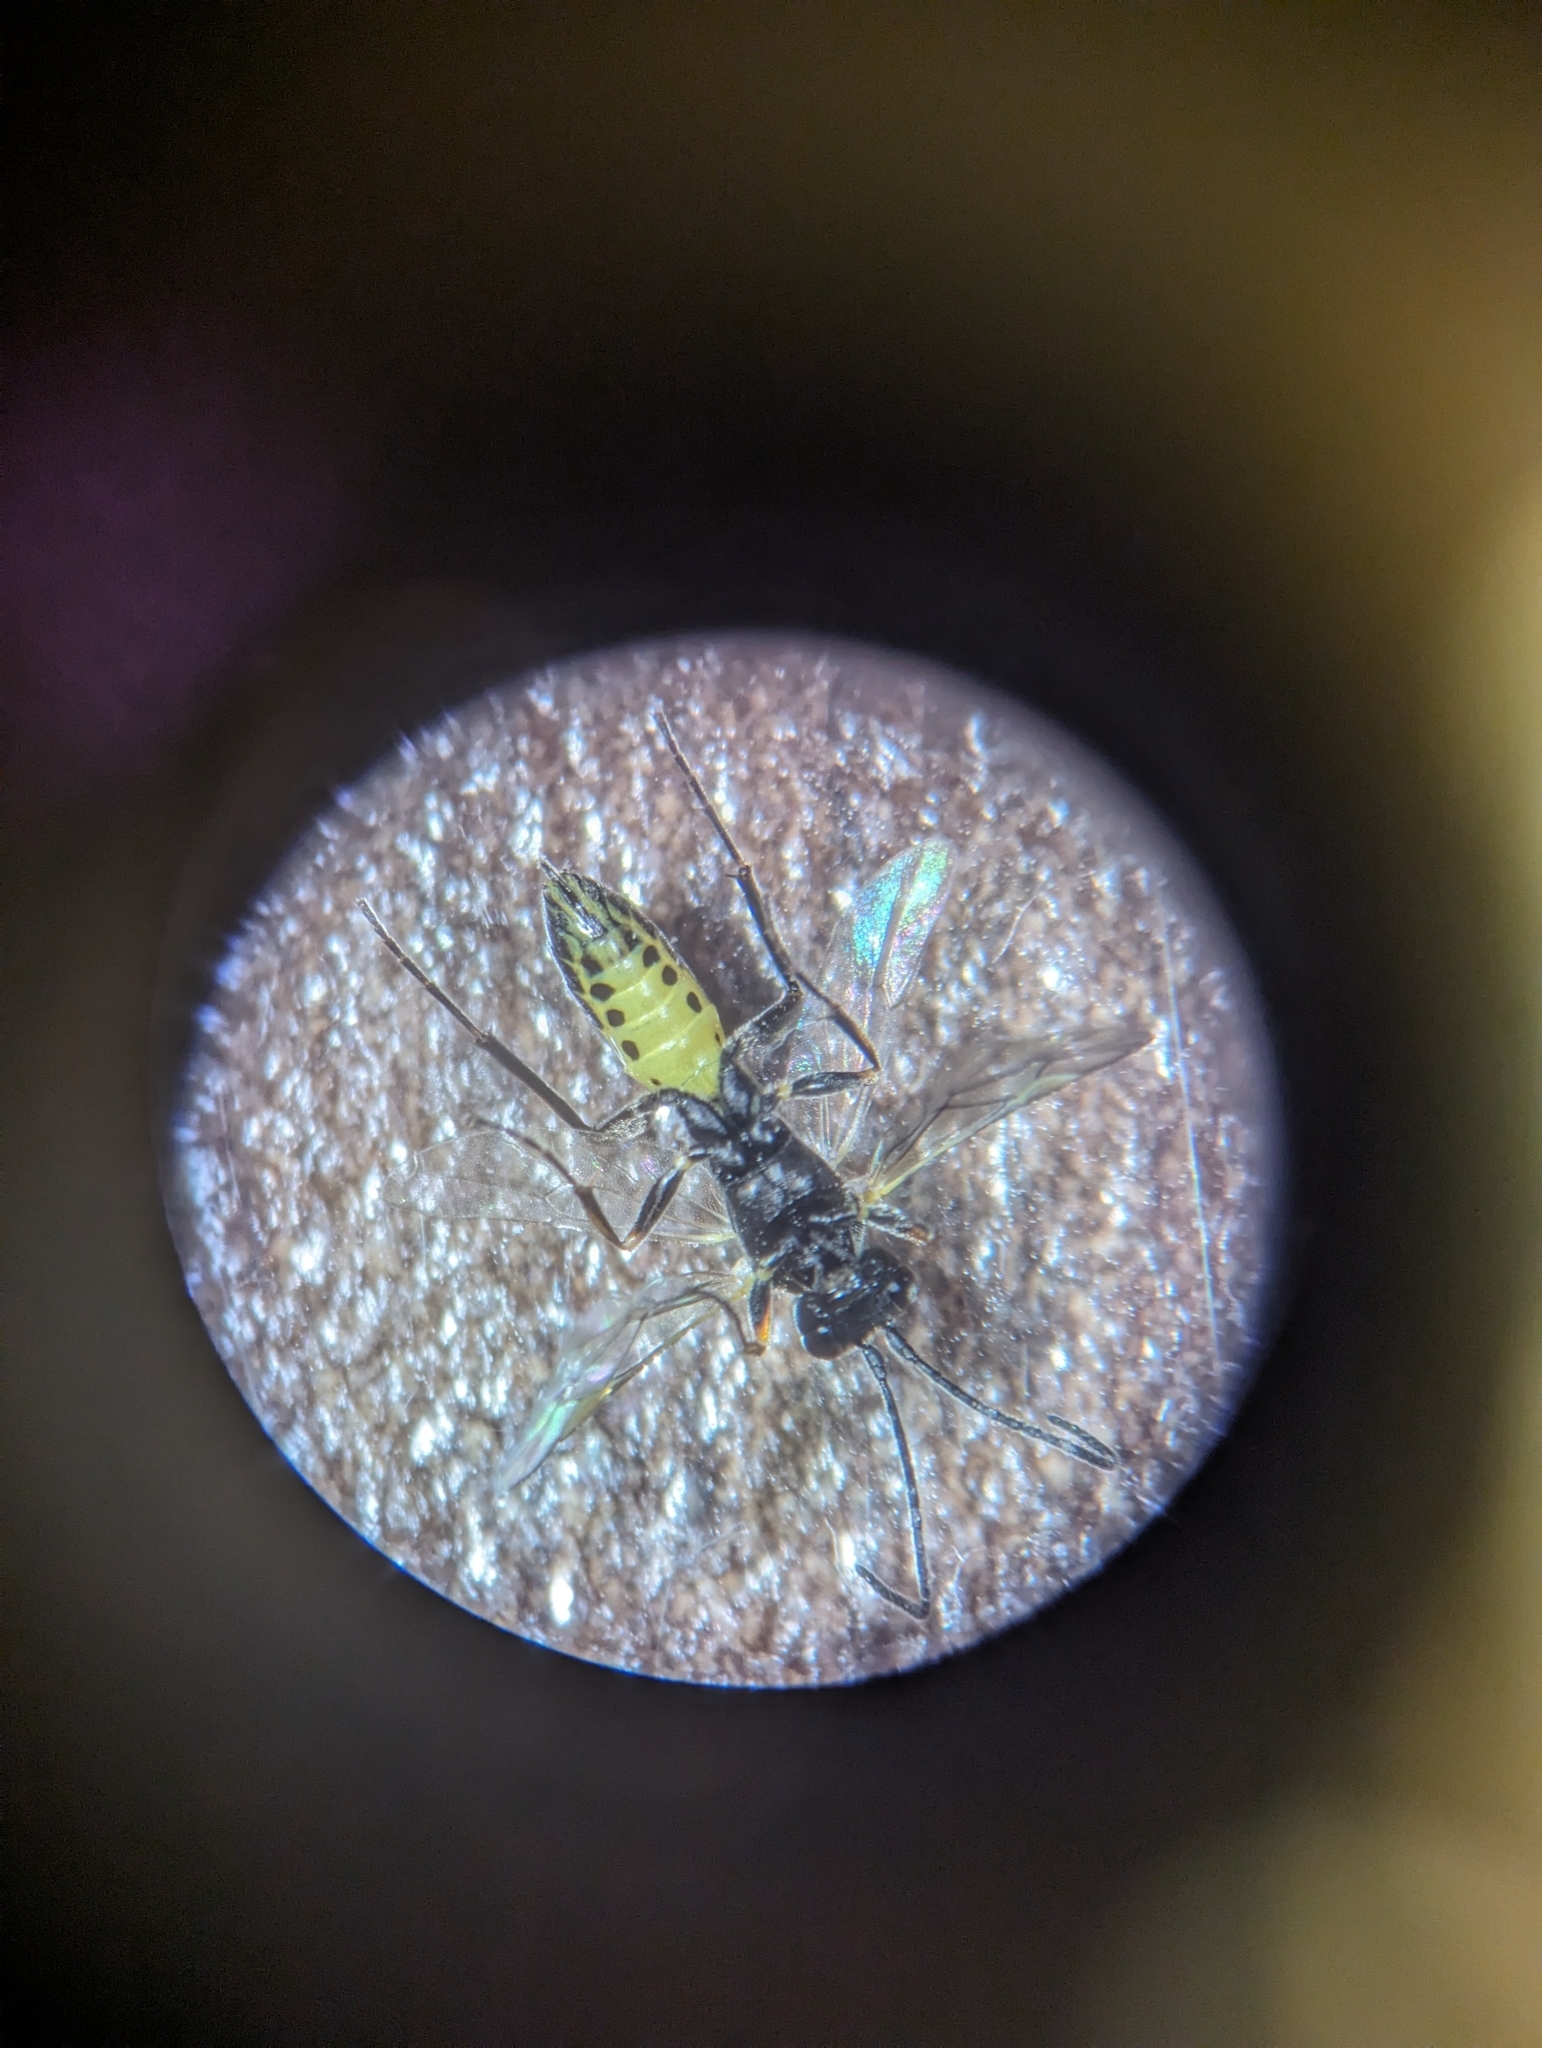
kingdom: Animalia
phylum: Arthropoda
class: Insecta
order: Hymenoptera
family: Ichneumonidae
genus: Bathyplectes
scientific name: Bathyplectes infernalis
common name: Ichneumonid wasp
